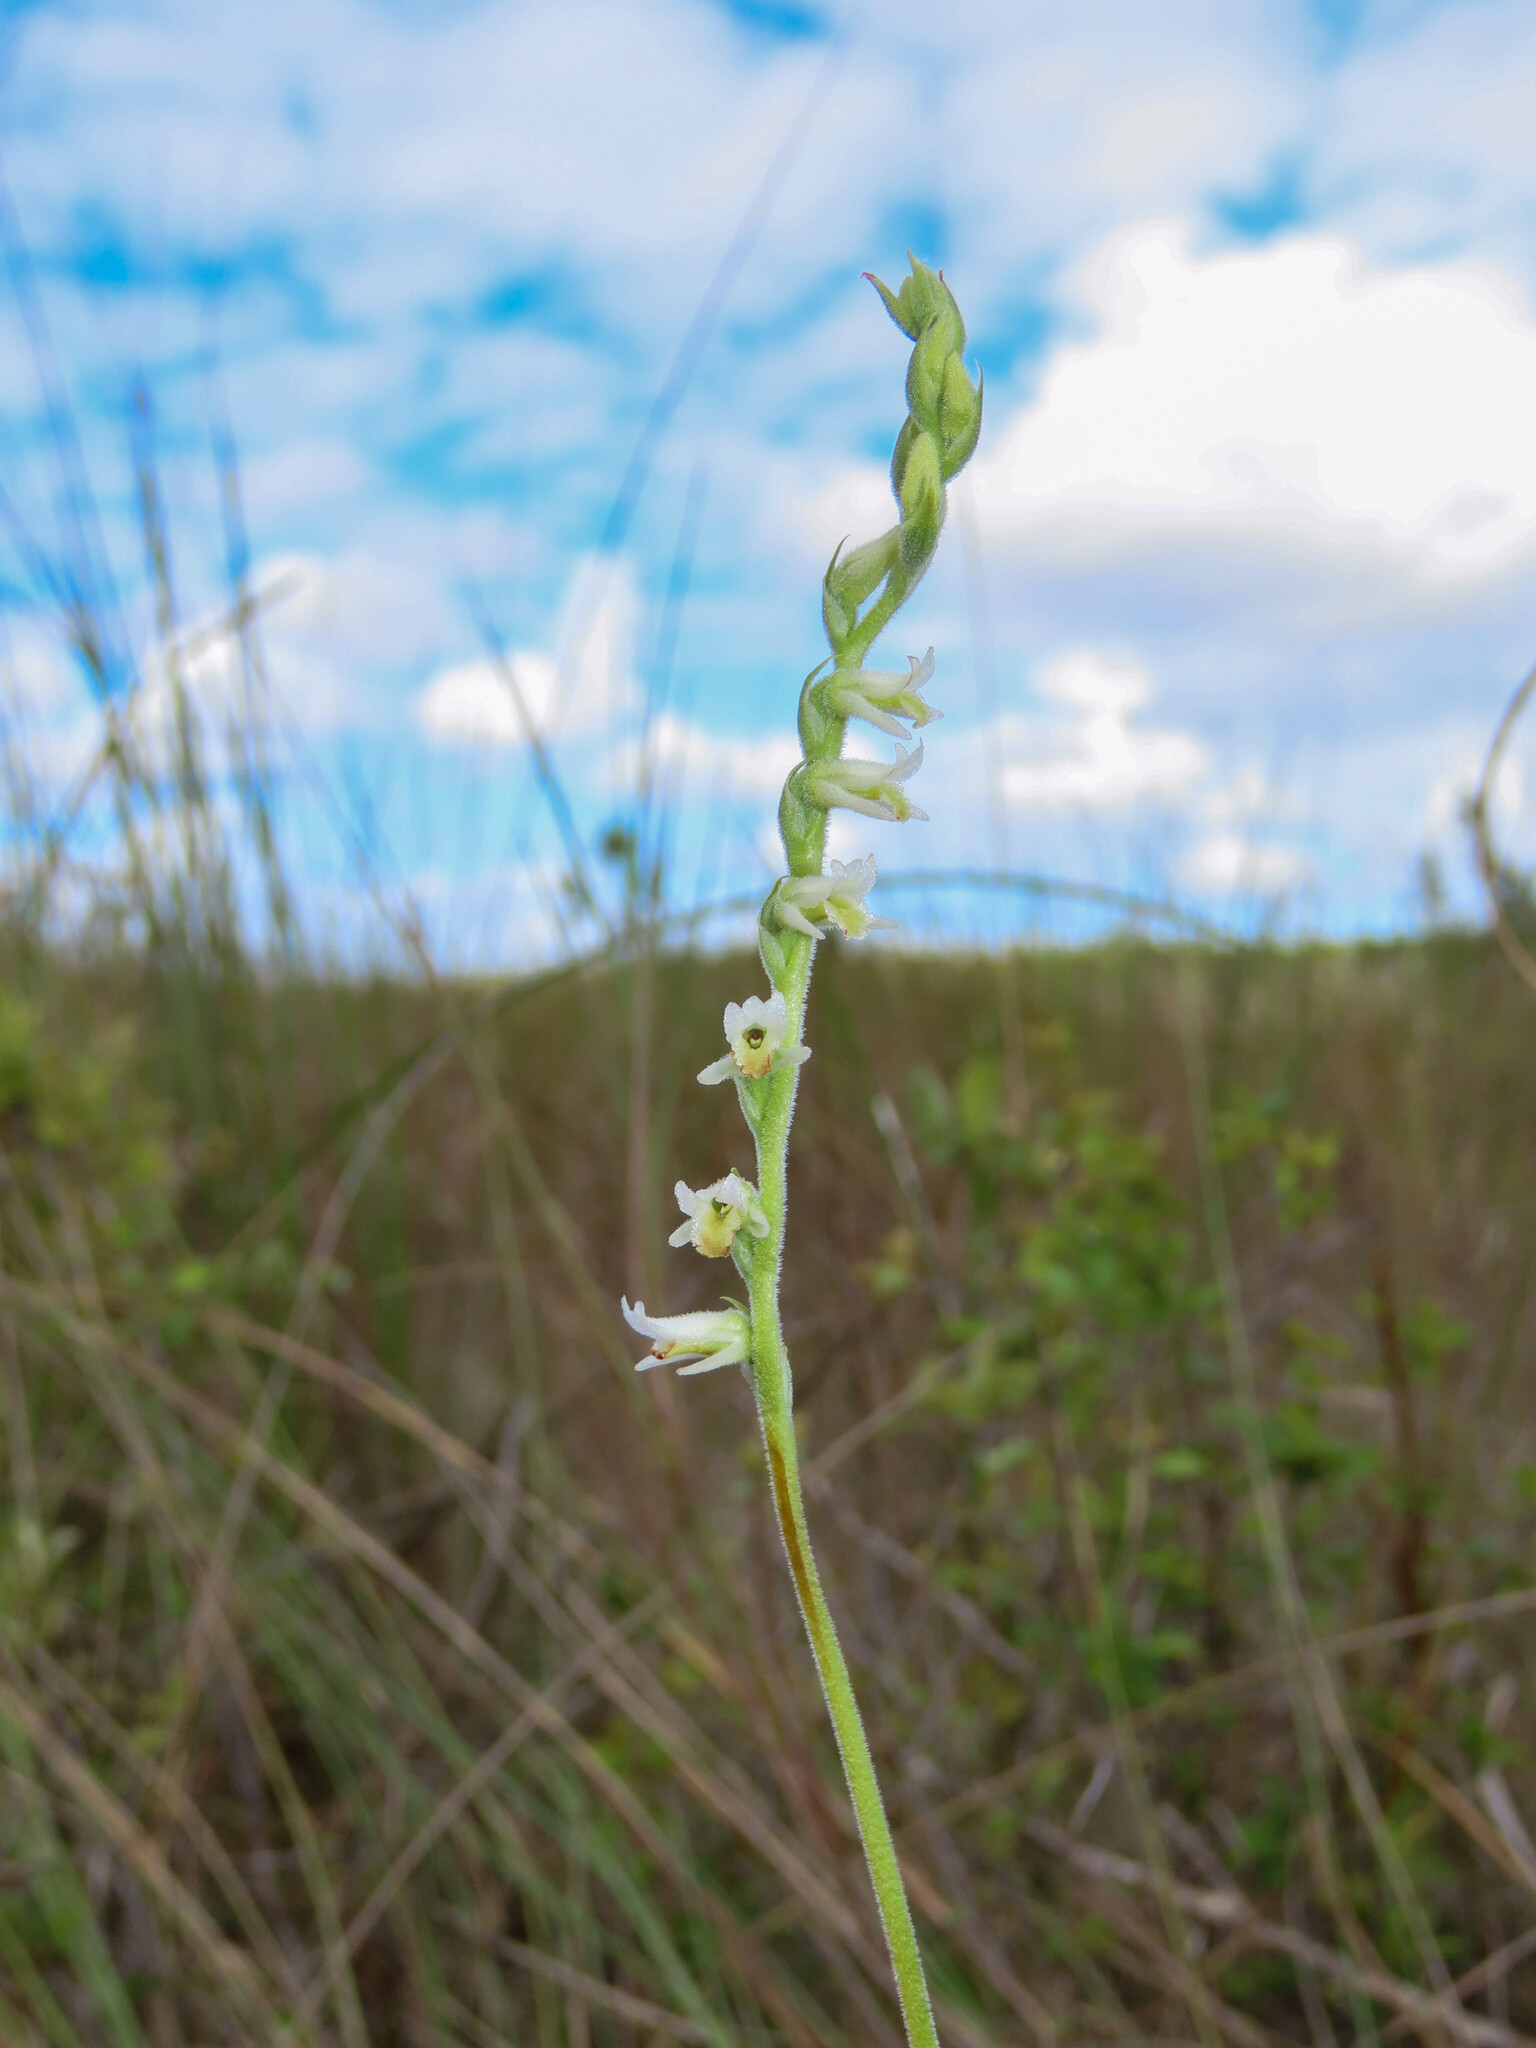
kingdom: Plantae
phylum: Tracheophyta
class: Liliopsida
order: Asparagales
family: Orchidaceae
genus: Spiranthes
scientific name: Spiranthes vernalis
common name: Spring ladies'-tresses
